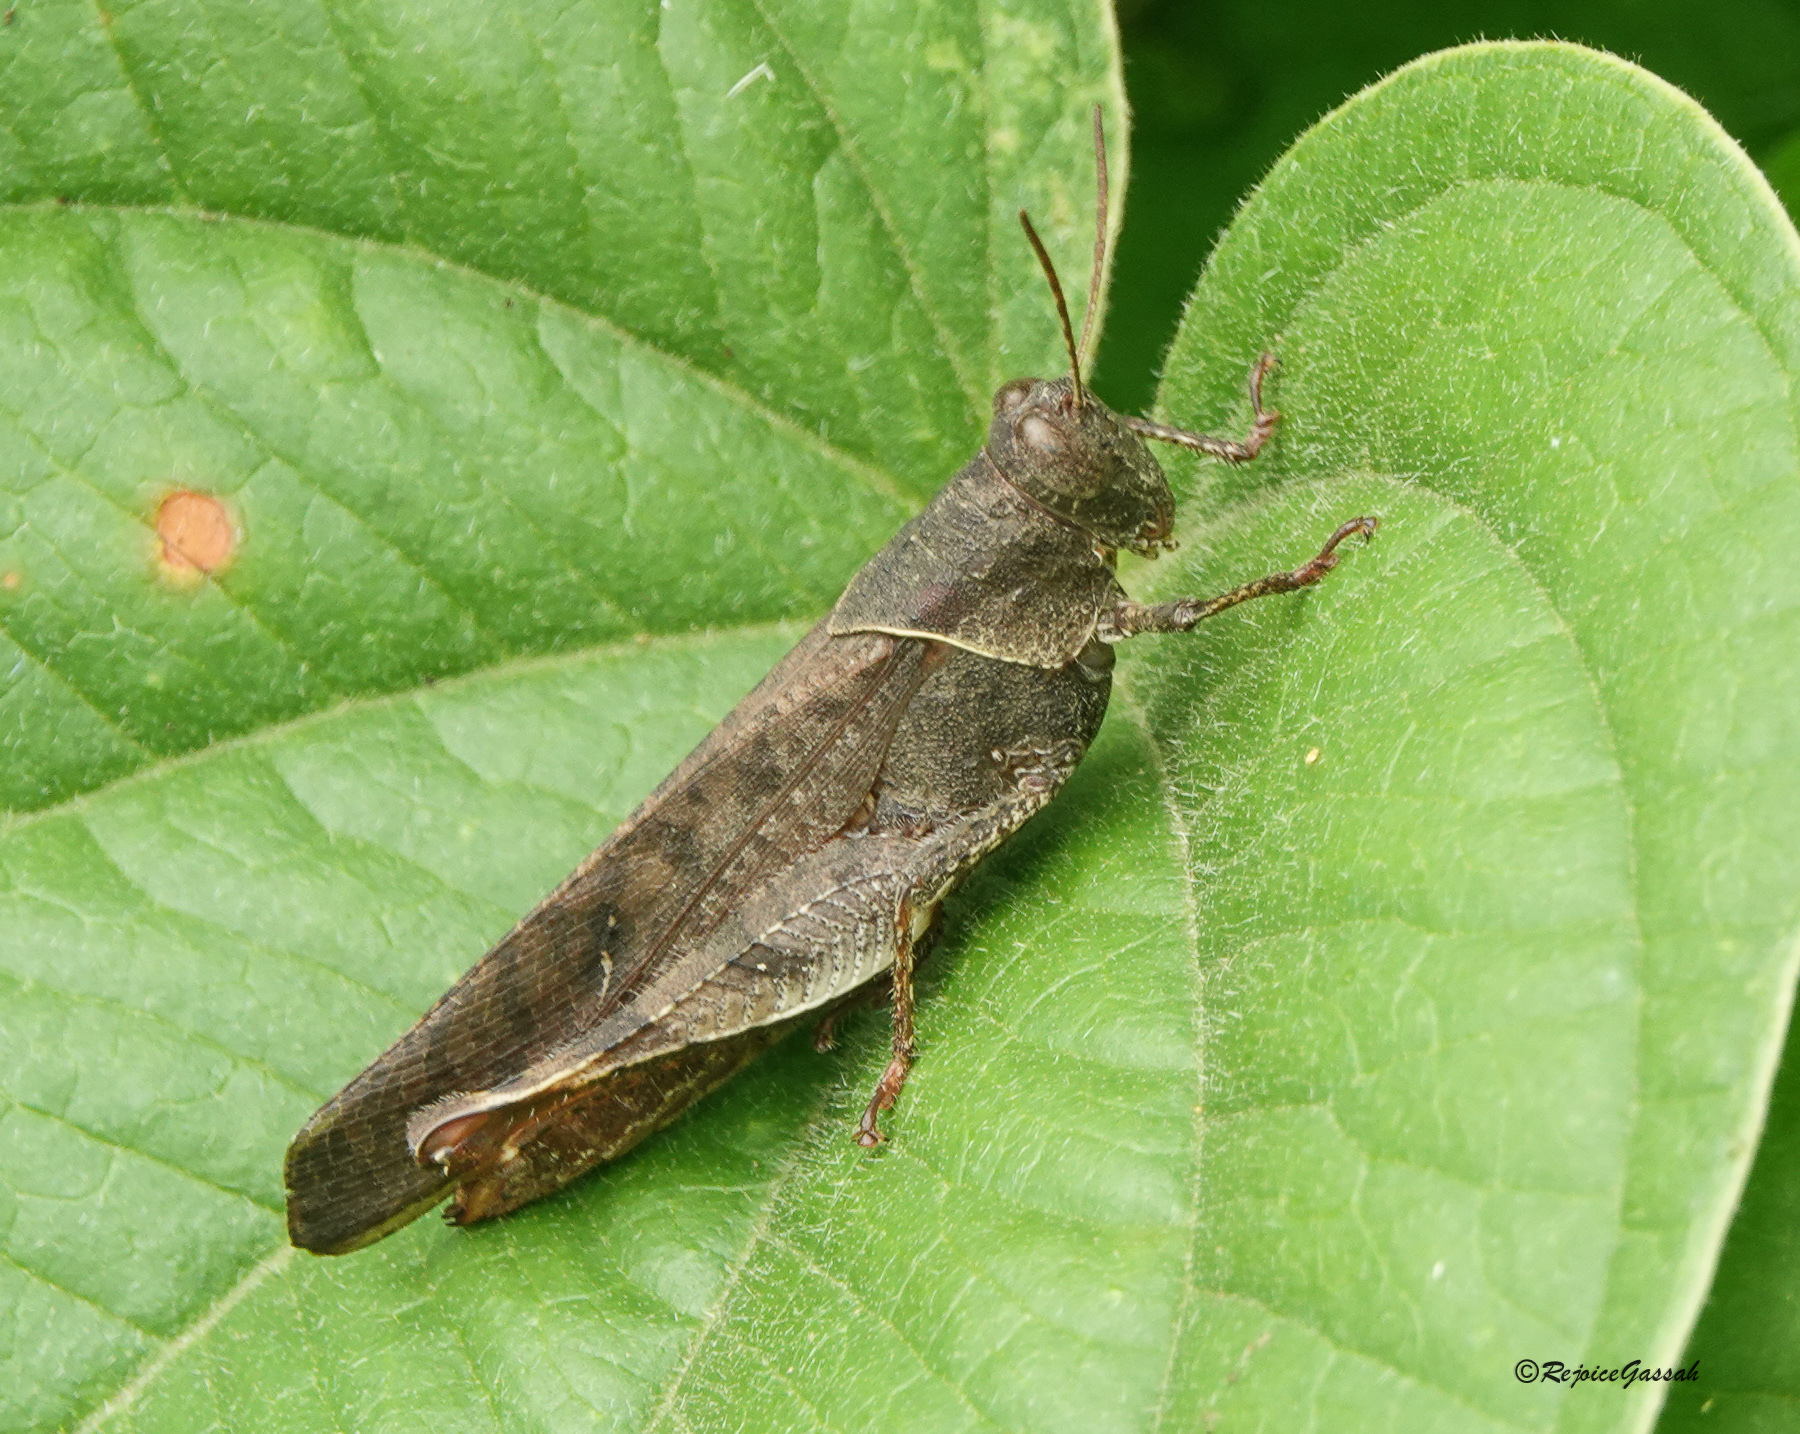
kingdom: Animalia
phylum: Arthropoda
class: Insecta
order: Orthoptera
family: Acrididae
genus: Eucoptacra
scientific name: Eucoptacra binghami
